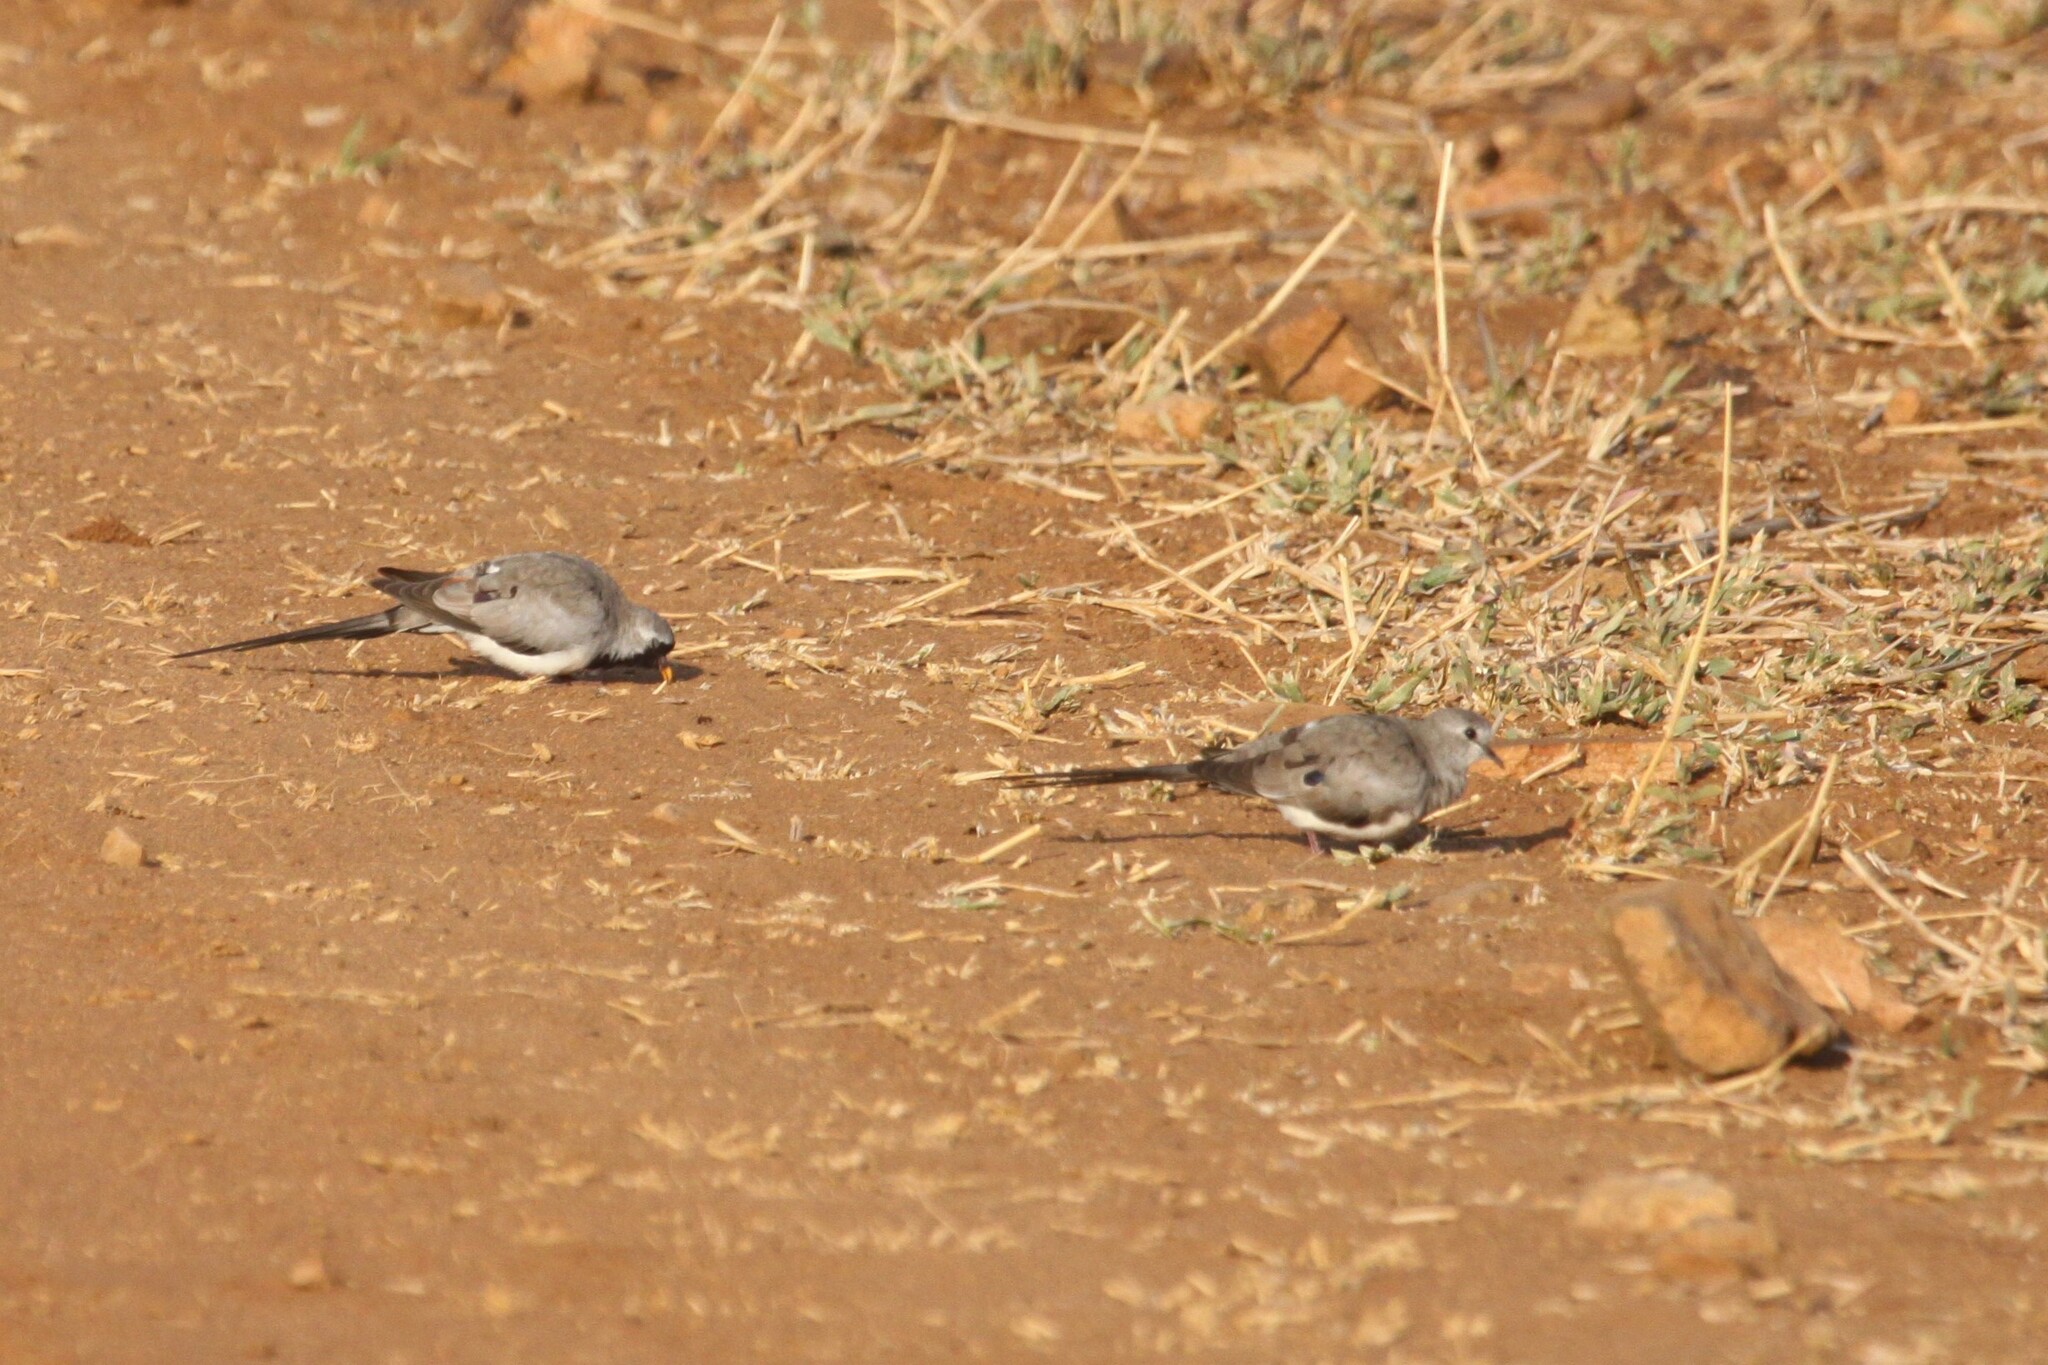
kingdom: Animalia
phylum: Chordata
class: Aves
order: Columbiformes
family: Columbidae
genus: Oena
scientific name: Oena capensis
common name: Namaqua dove
